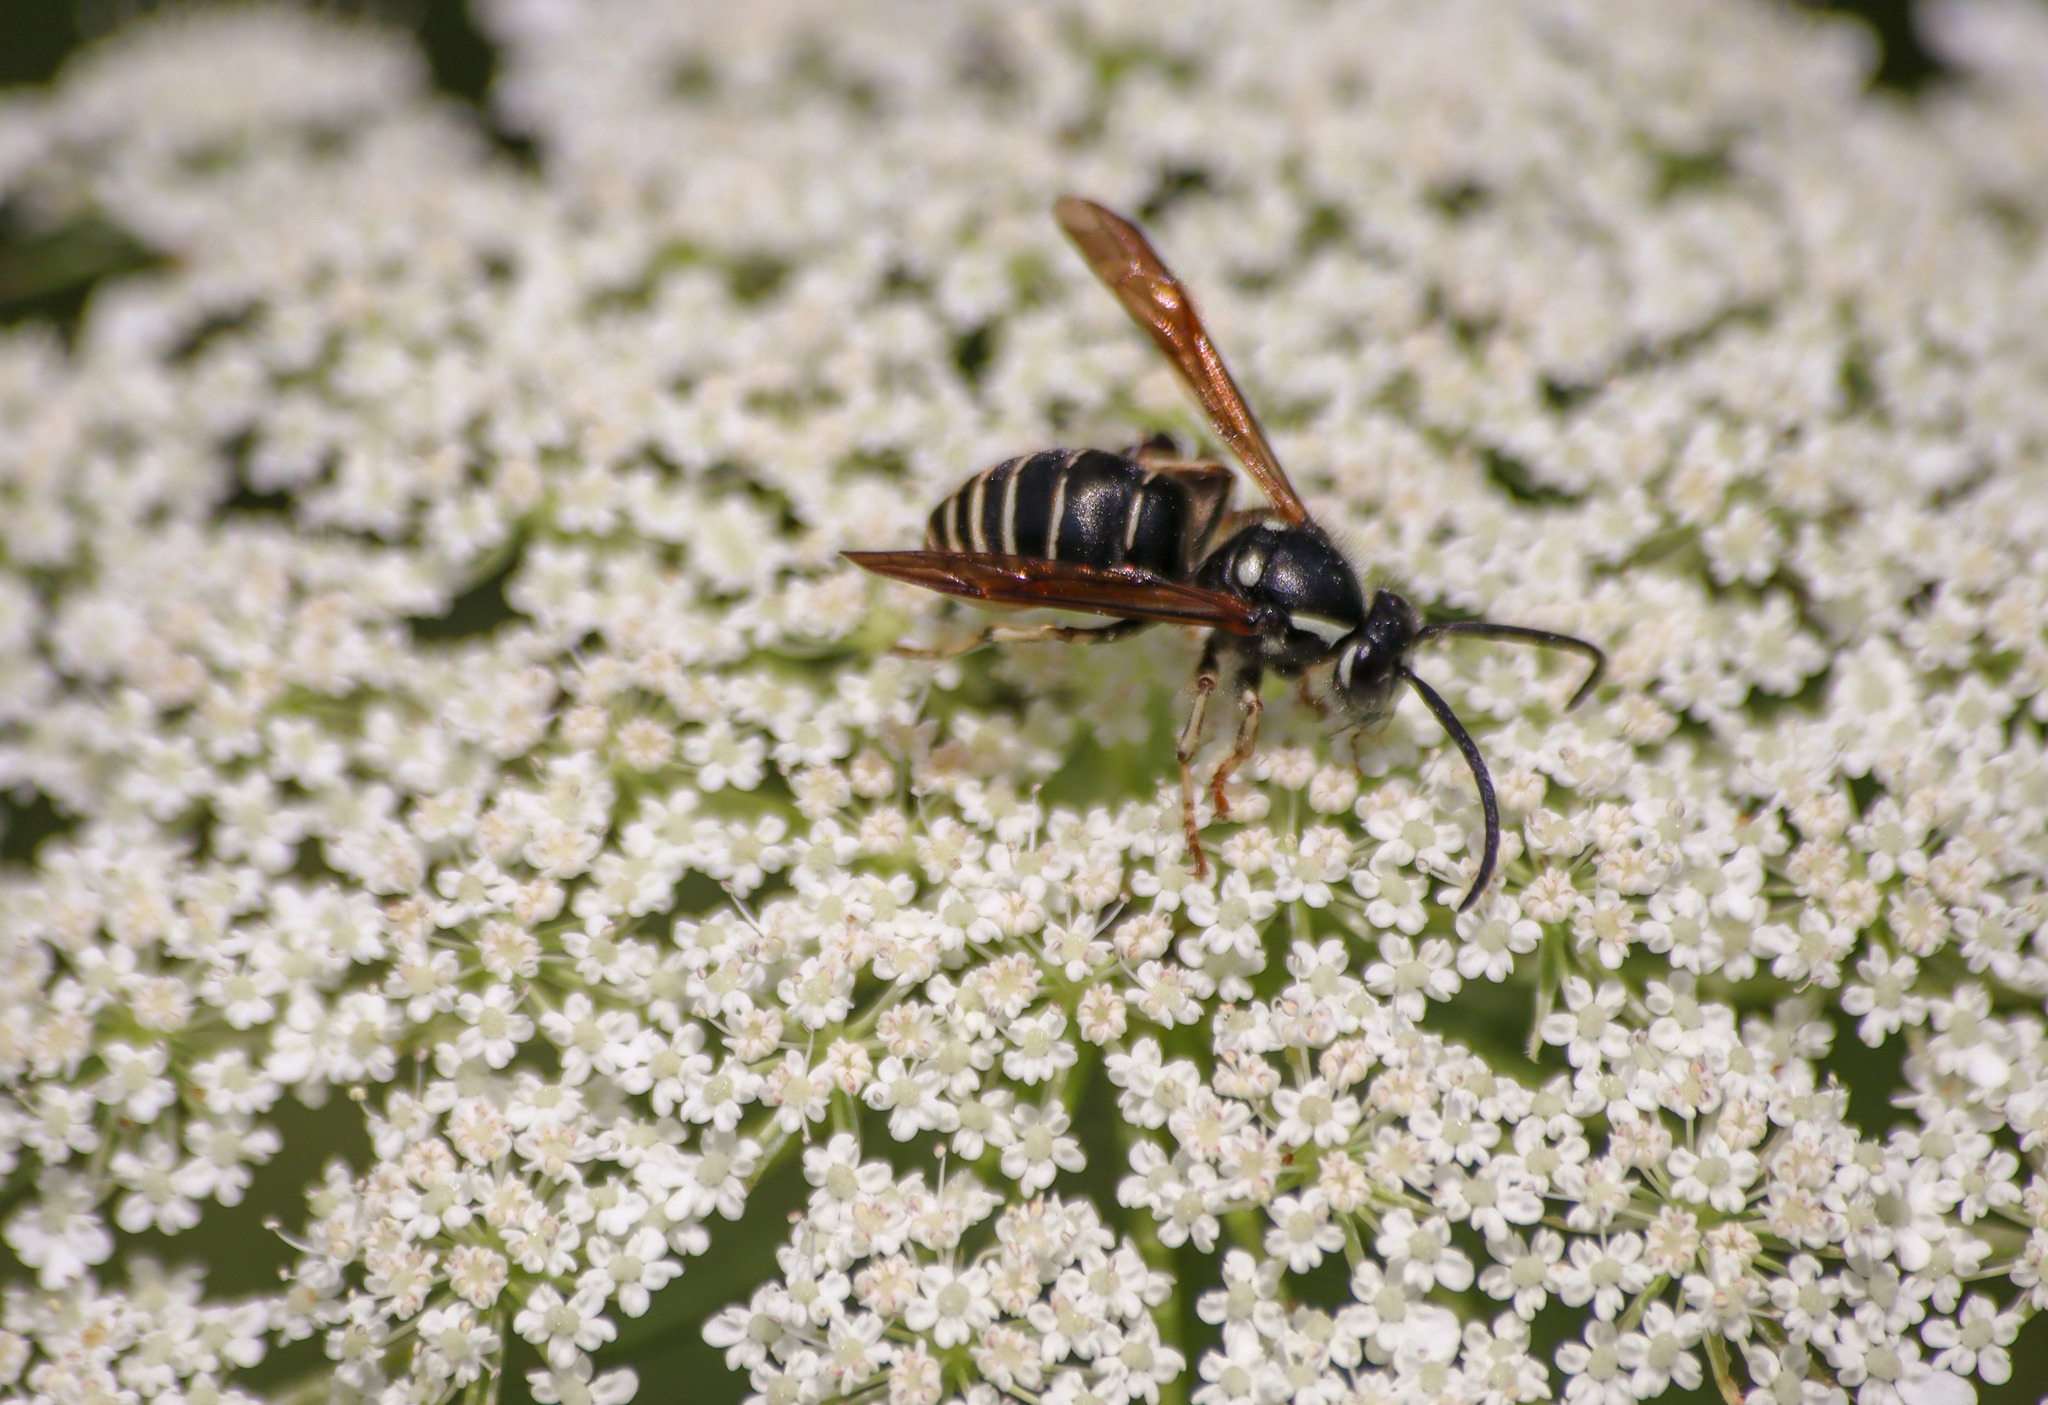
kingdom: Animalia
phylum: Arthropoda
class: Insecta
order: Hymenoptera
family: Vespidae
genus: Dolichovespula
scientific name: Dolichovespula adulterina
